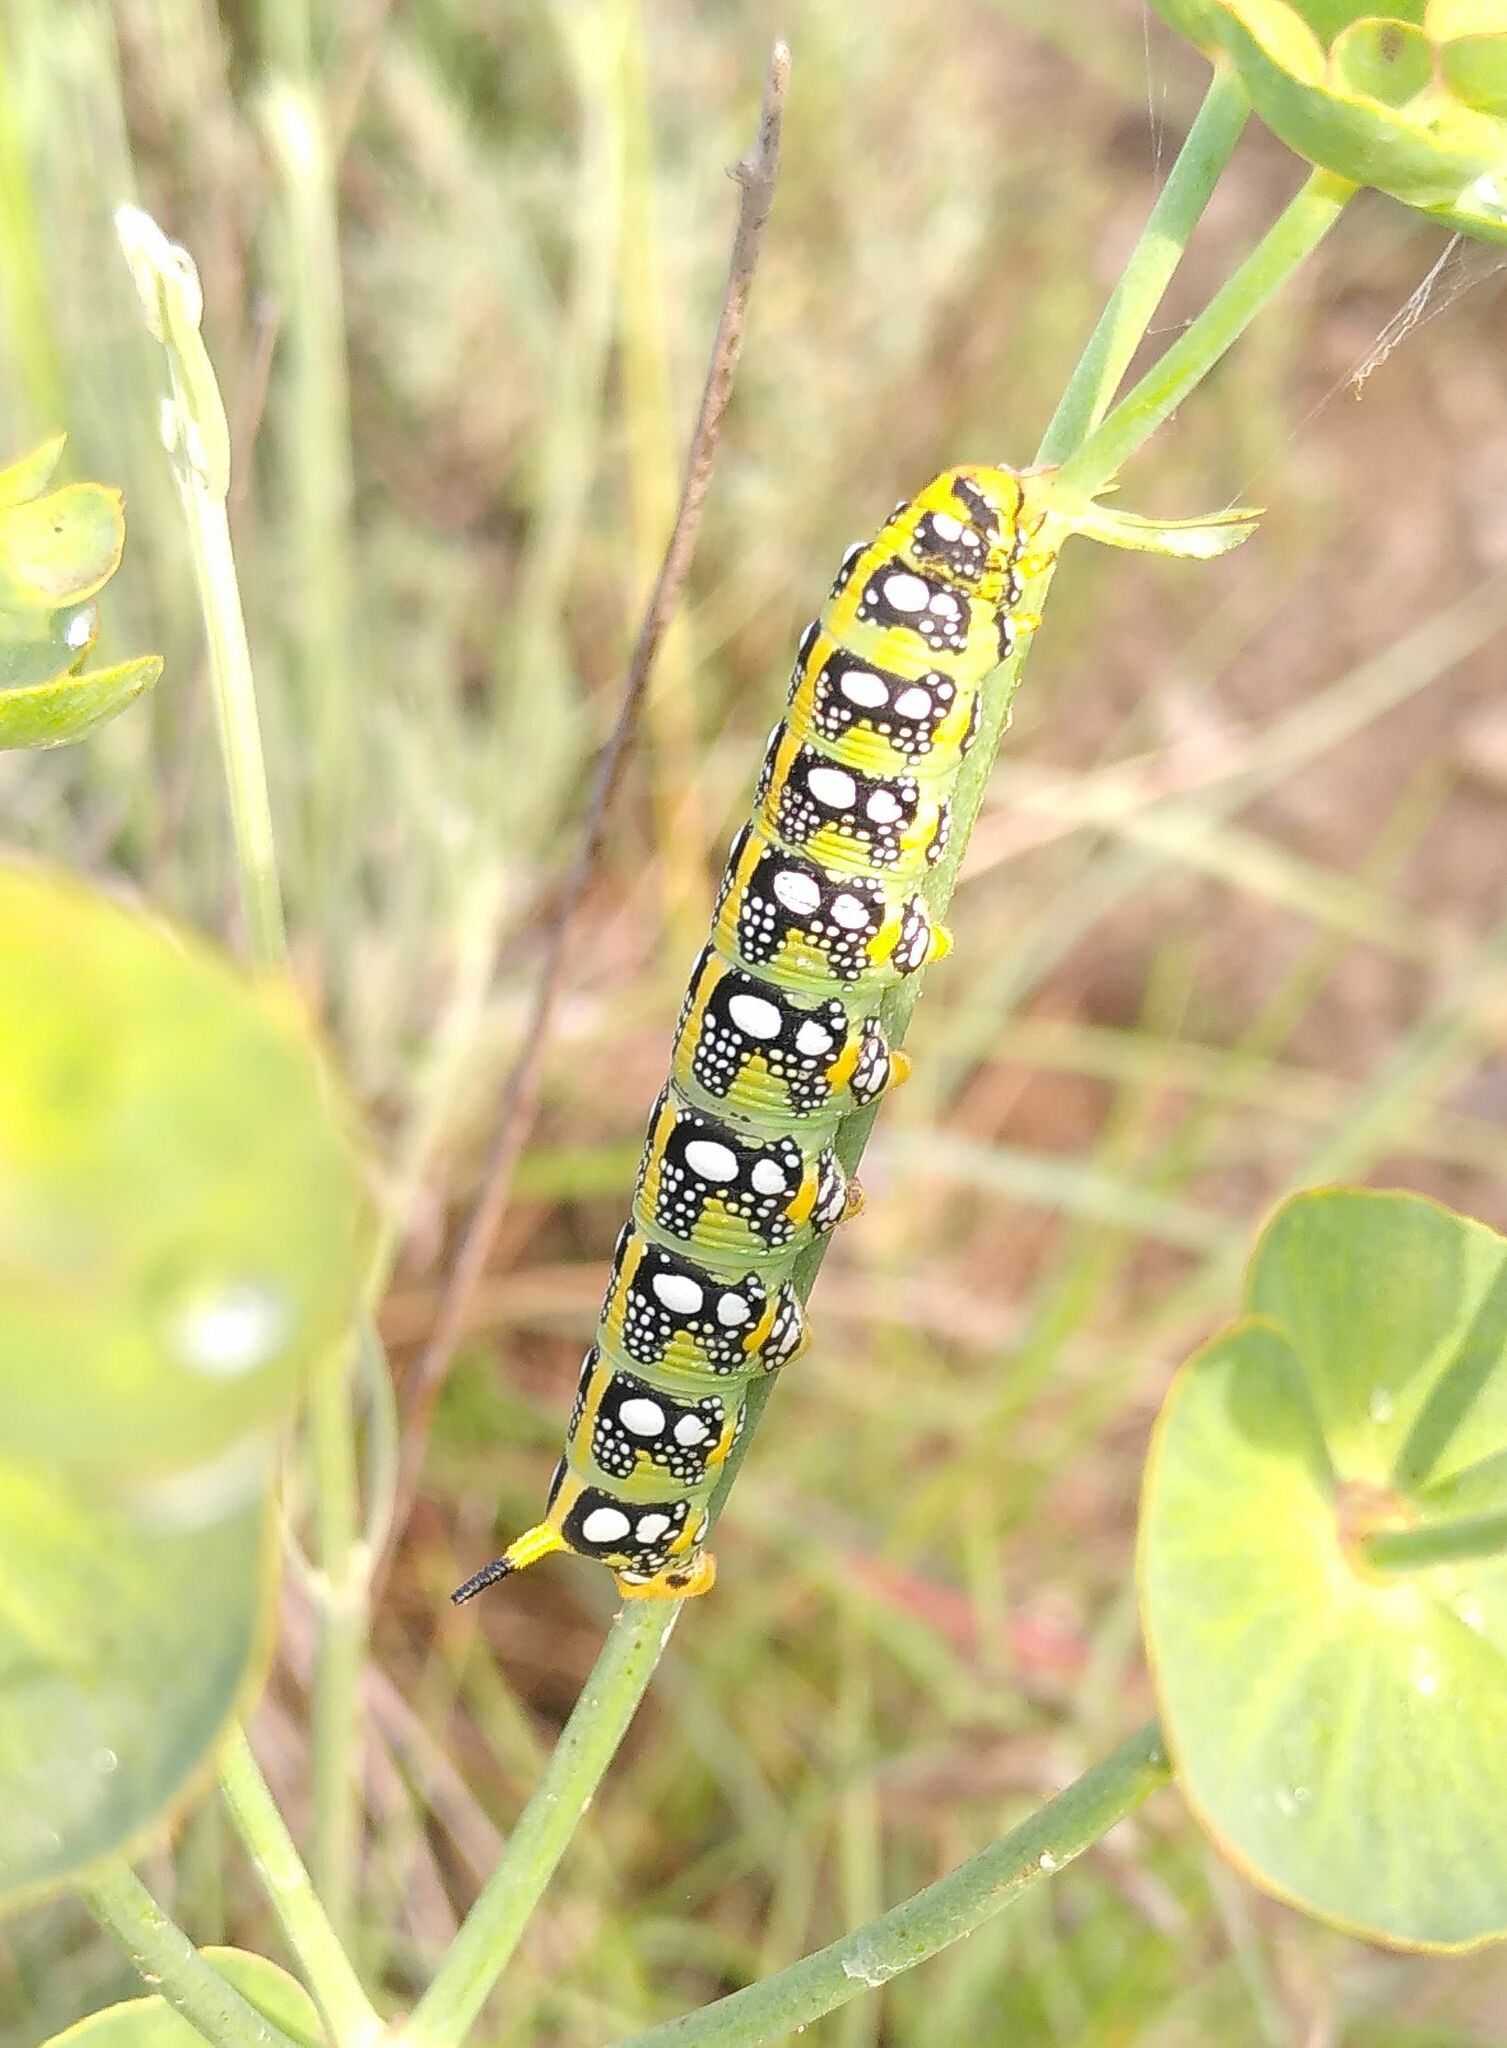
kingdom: Animalia
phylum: Arthropoda
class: Insecta
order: Lepidoptera
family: Sphingidae
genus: Hyles
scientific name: Hyles euphorbiae
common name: Spurge hawk-moth
